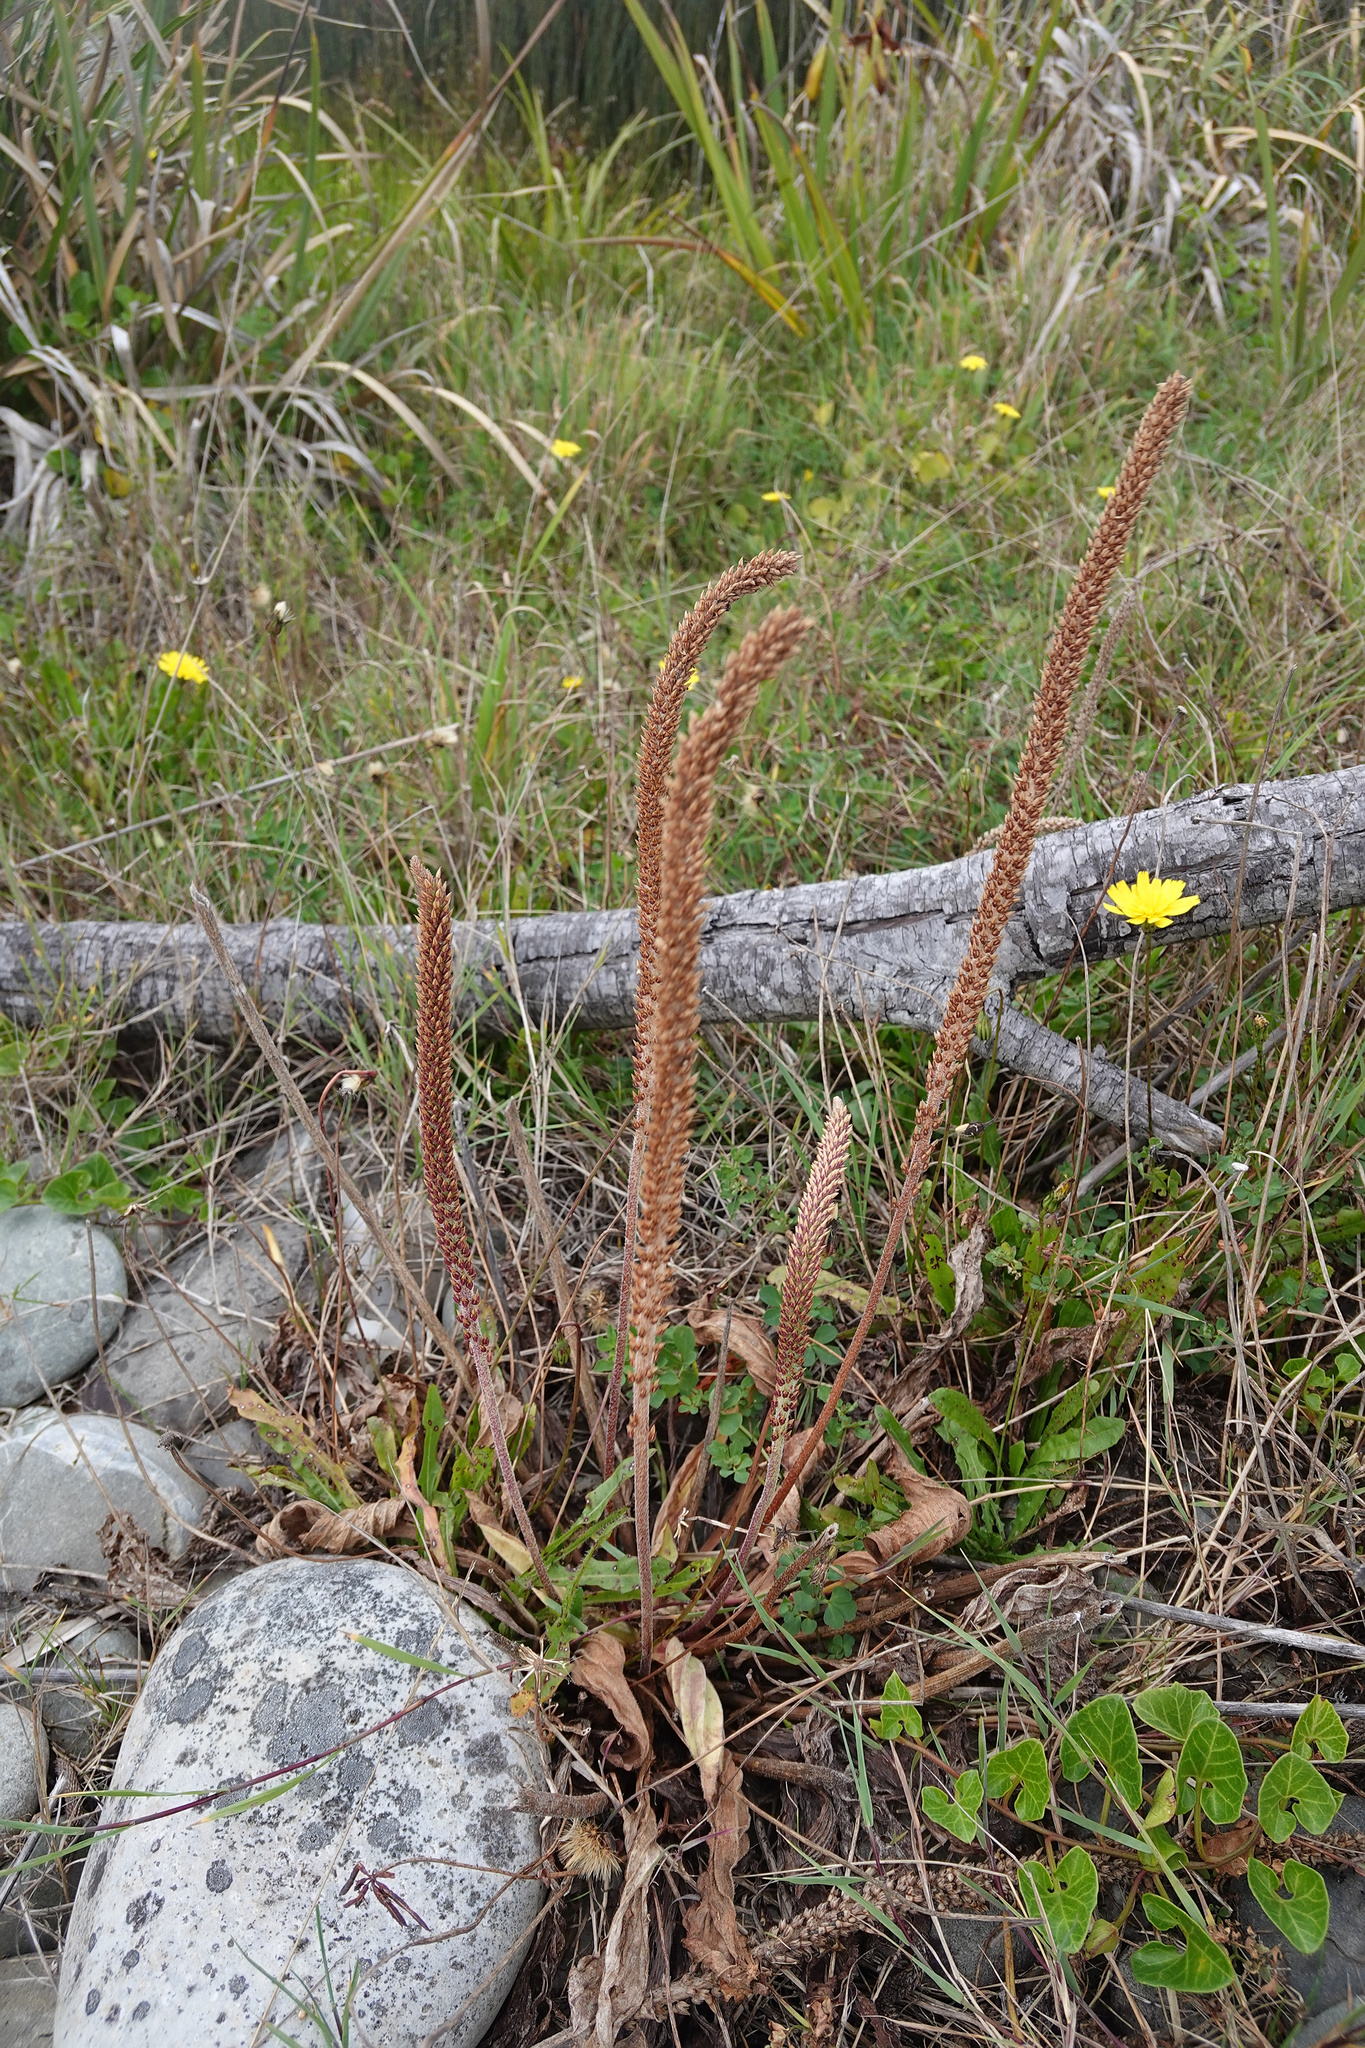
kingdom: Plantae
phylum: Tracheophyta
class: Magnoliopsida
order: Lamiales
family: Plantaginaceae
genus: Plantago
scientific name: Plantago australis
